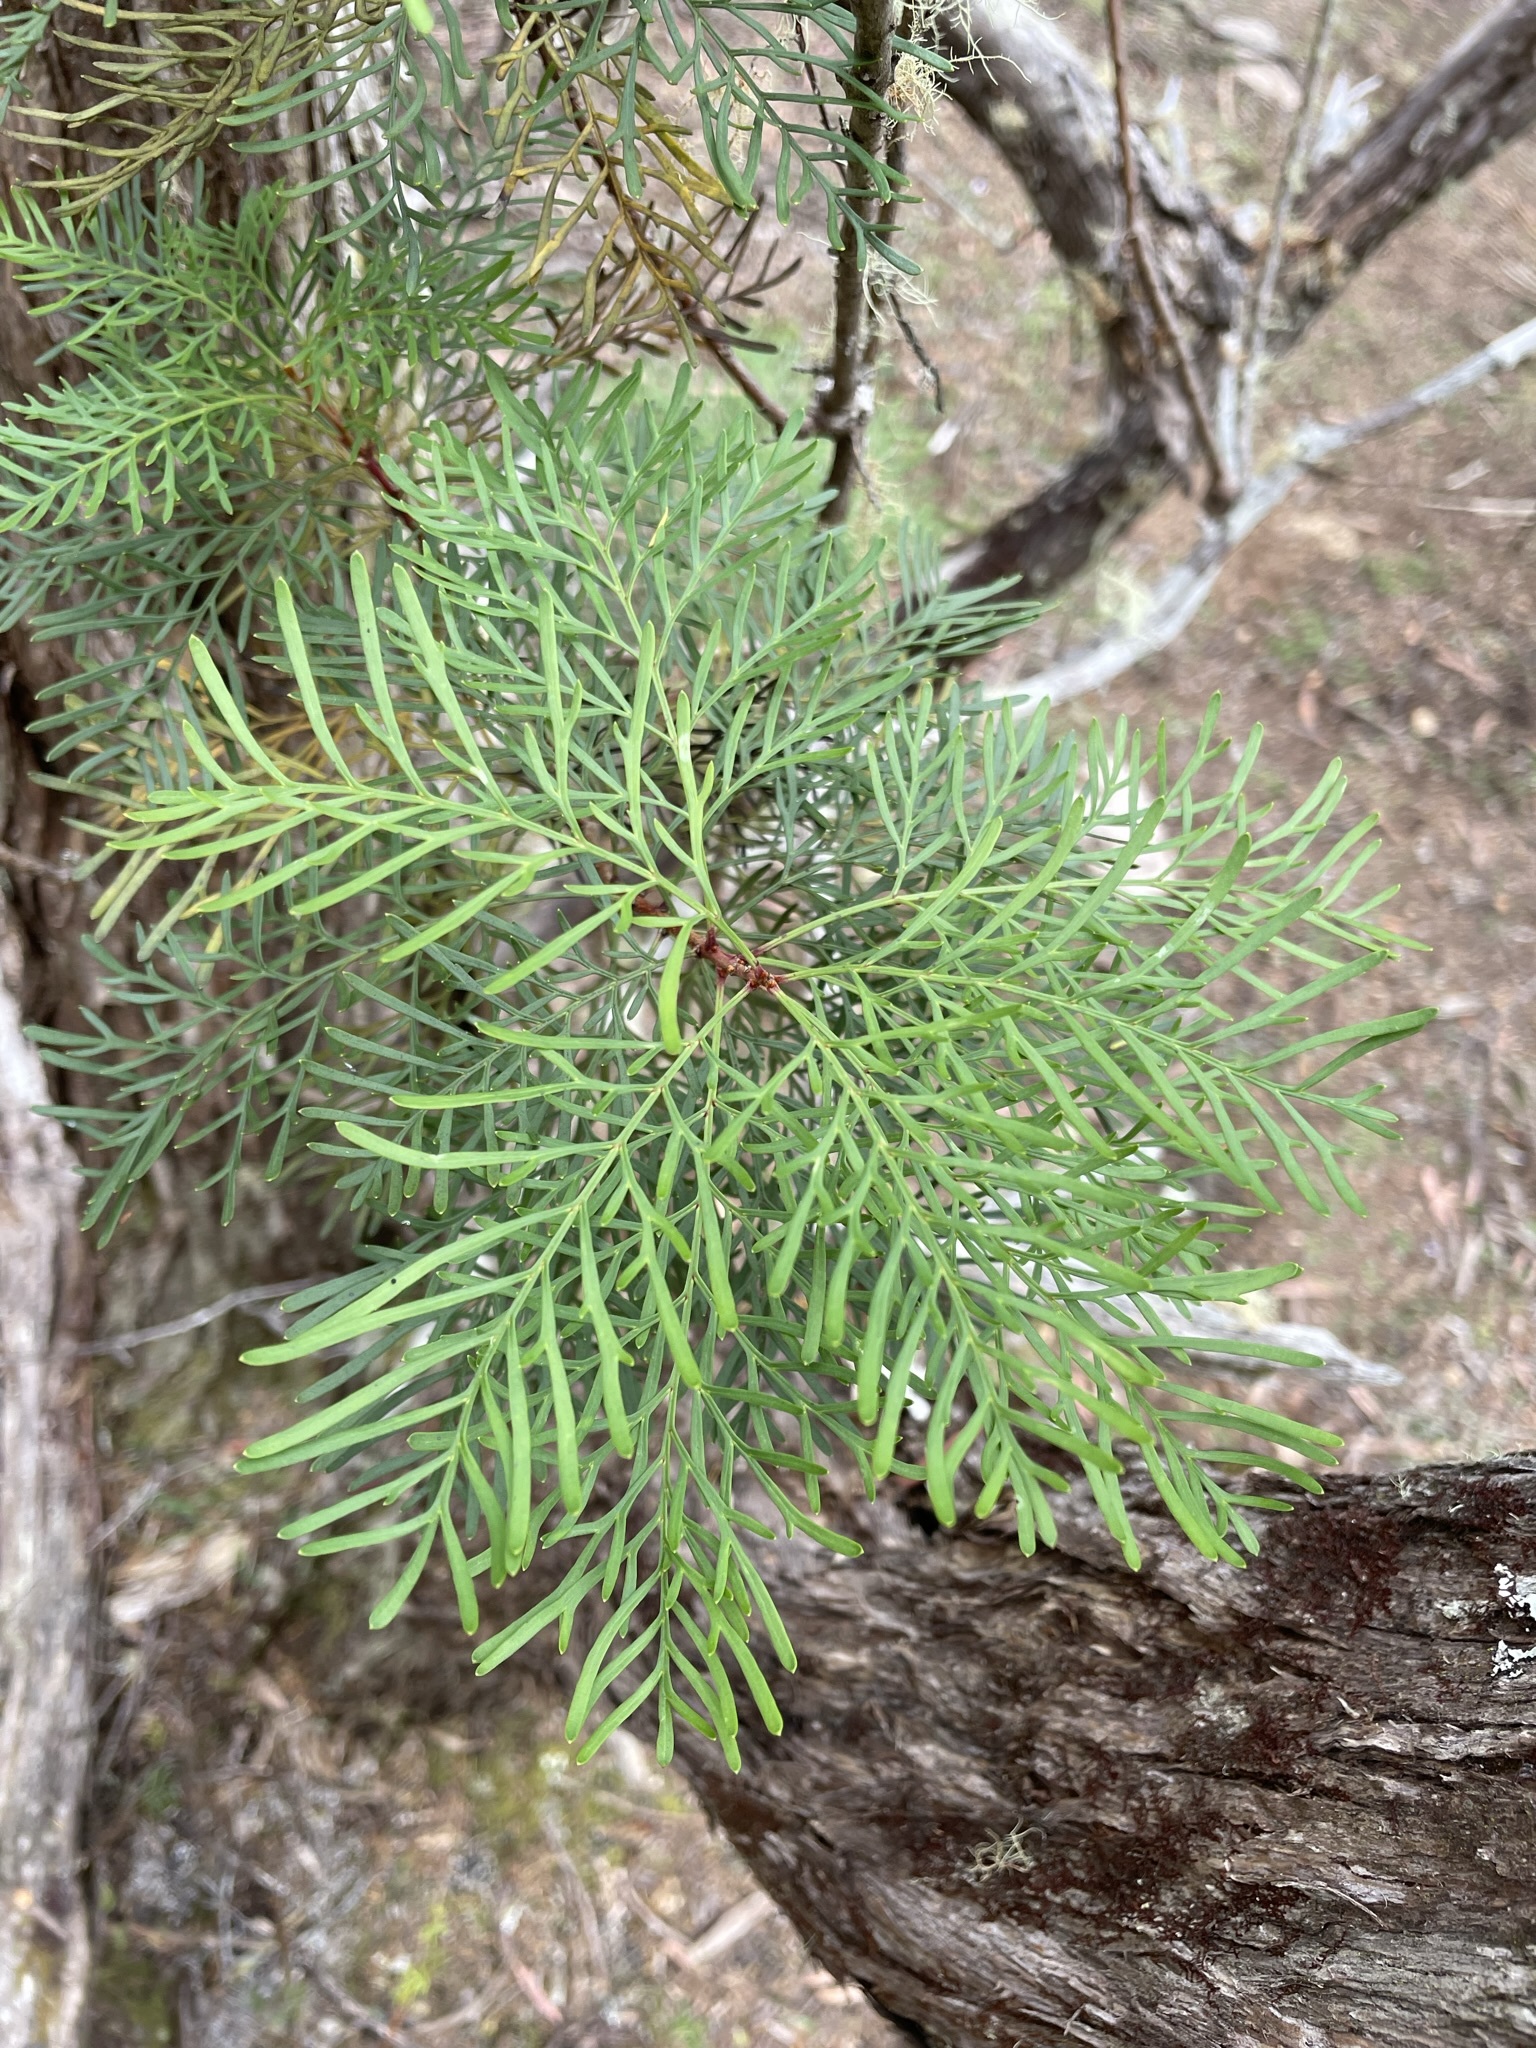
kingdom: Plantae
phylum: Tracheophyta
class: Magnoliopsida
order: Proteales
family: Proteaceae
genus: Lomatia
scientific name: Lomatia tinctoria
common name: Guitar plant
